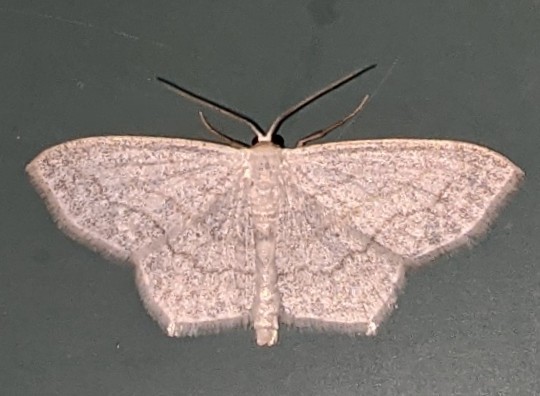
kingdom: Animalia
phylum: Arthropoda
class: Insecta
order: Lepidoptera
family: Geometridae
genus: Scopula
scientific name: Scopula limboundata
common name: Large lace border
